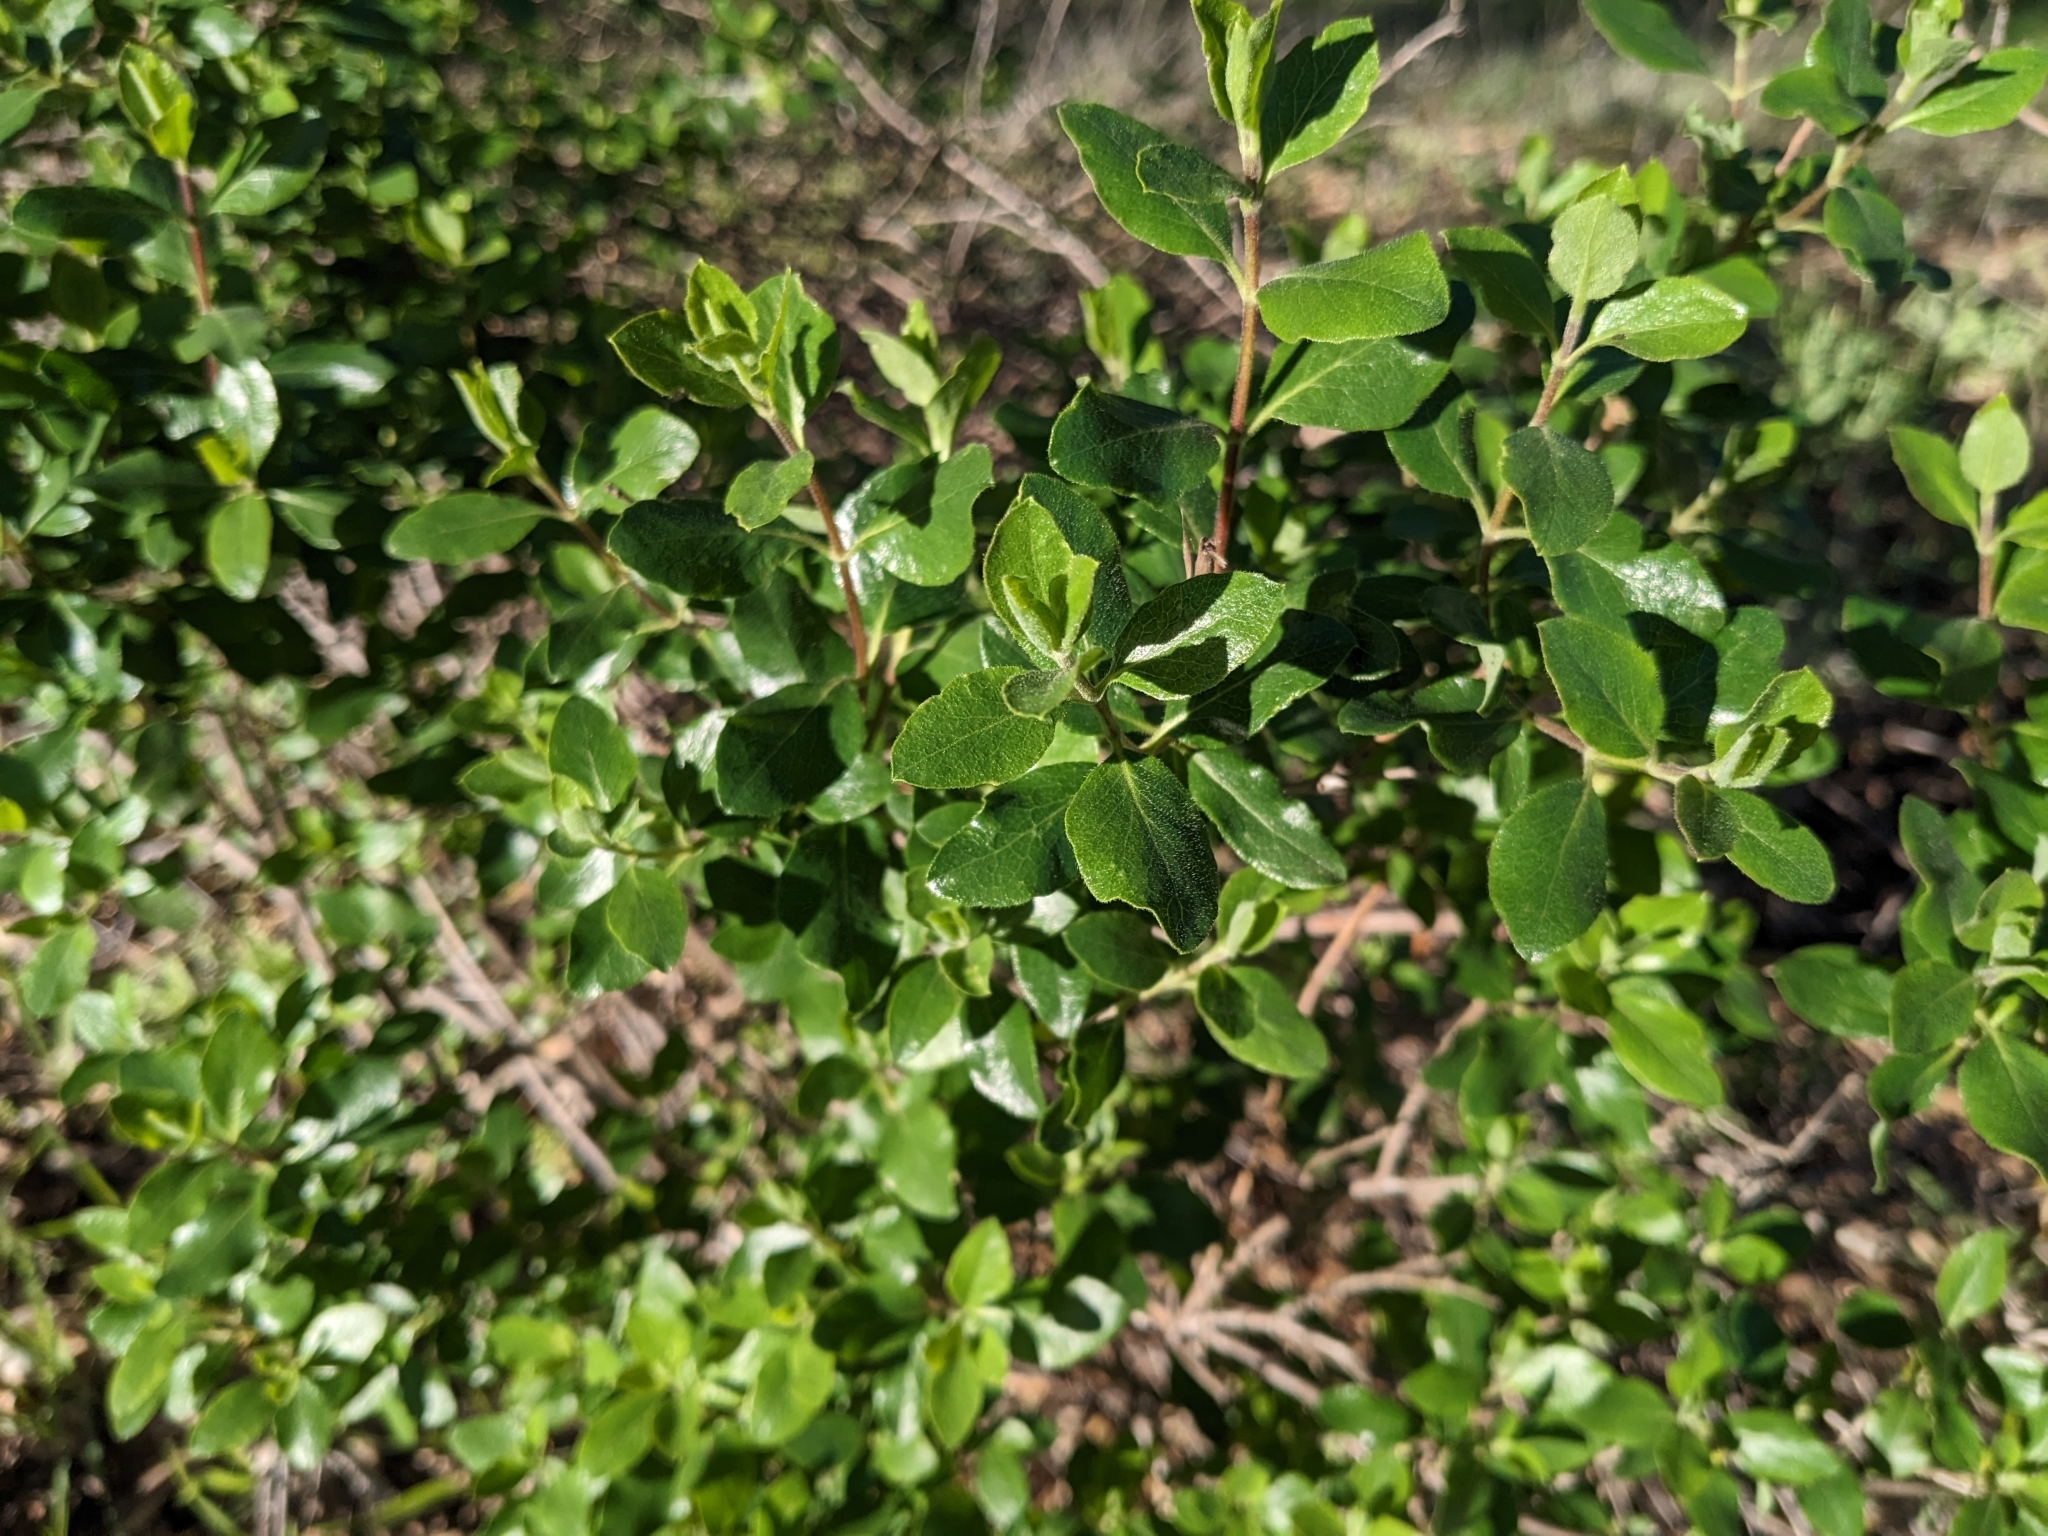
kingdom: Plantae
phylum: Tracheophyta
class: Magnoliopsida
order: Dipsacales
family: Caprifoliaceae
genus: Lonicera
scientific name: Lonicera subspicata
